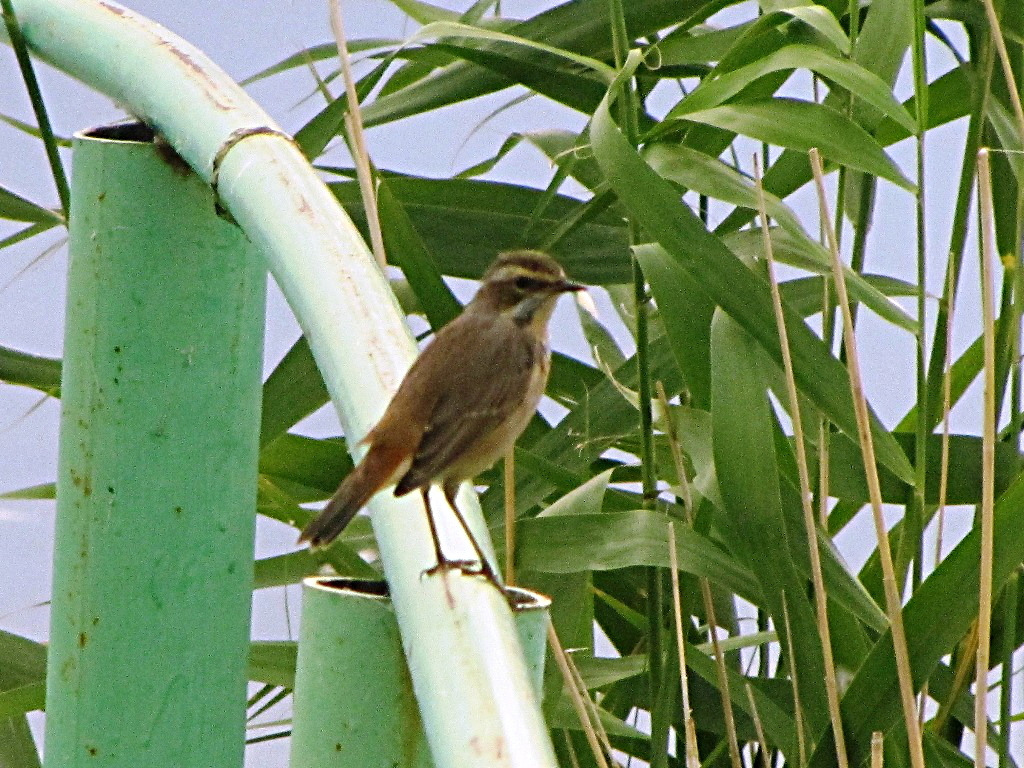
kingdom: Animalia
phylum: Chordata
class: Aves
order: Passeriformes
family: Muscicapidae
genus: Luscinia
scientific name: Luscinia svecica
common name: Bluethroat
